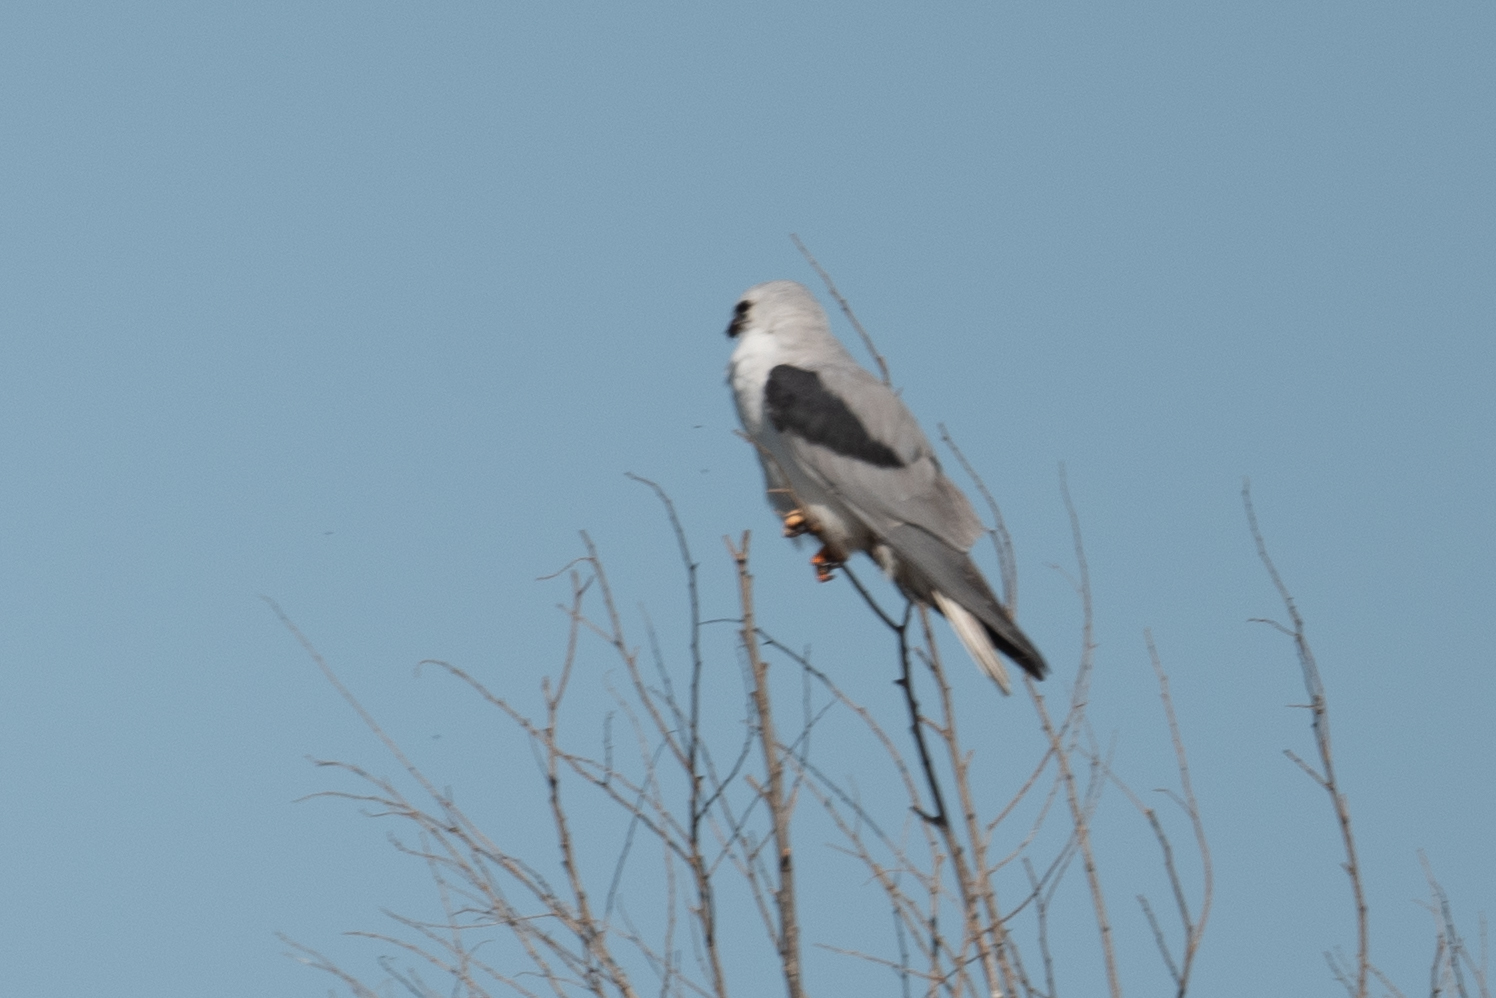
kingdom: Animalia
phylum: Chordata
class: Aves
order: Accipitriformes
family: Accipitridae
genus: Elanus
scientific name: Elanus leucurus
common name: White-tailed kite
